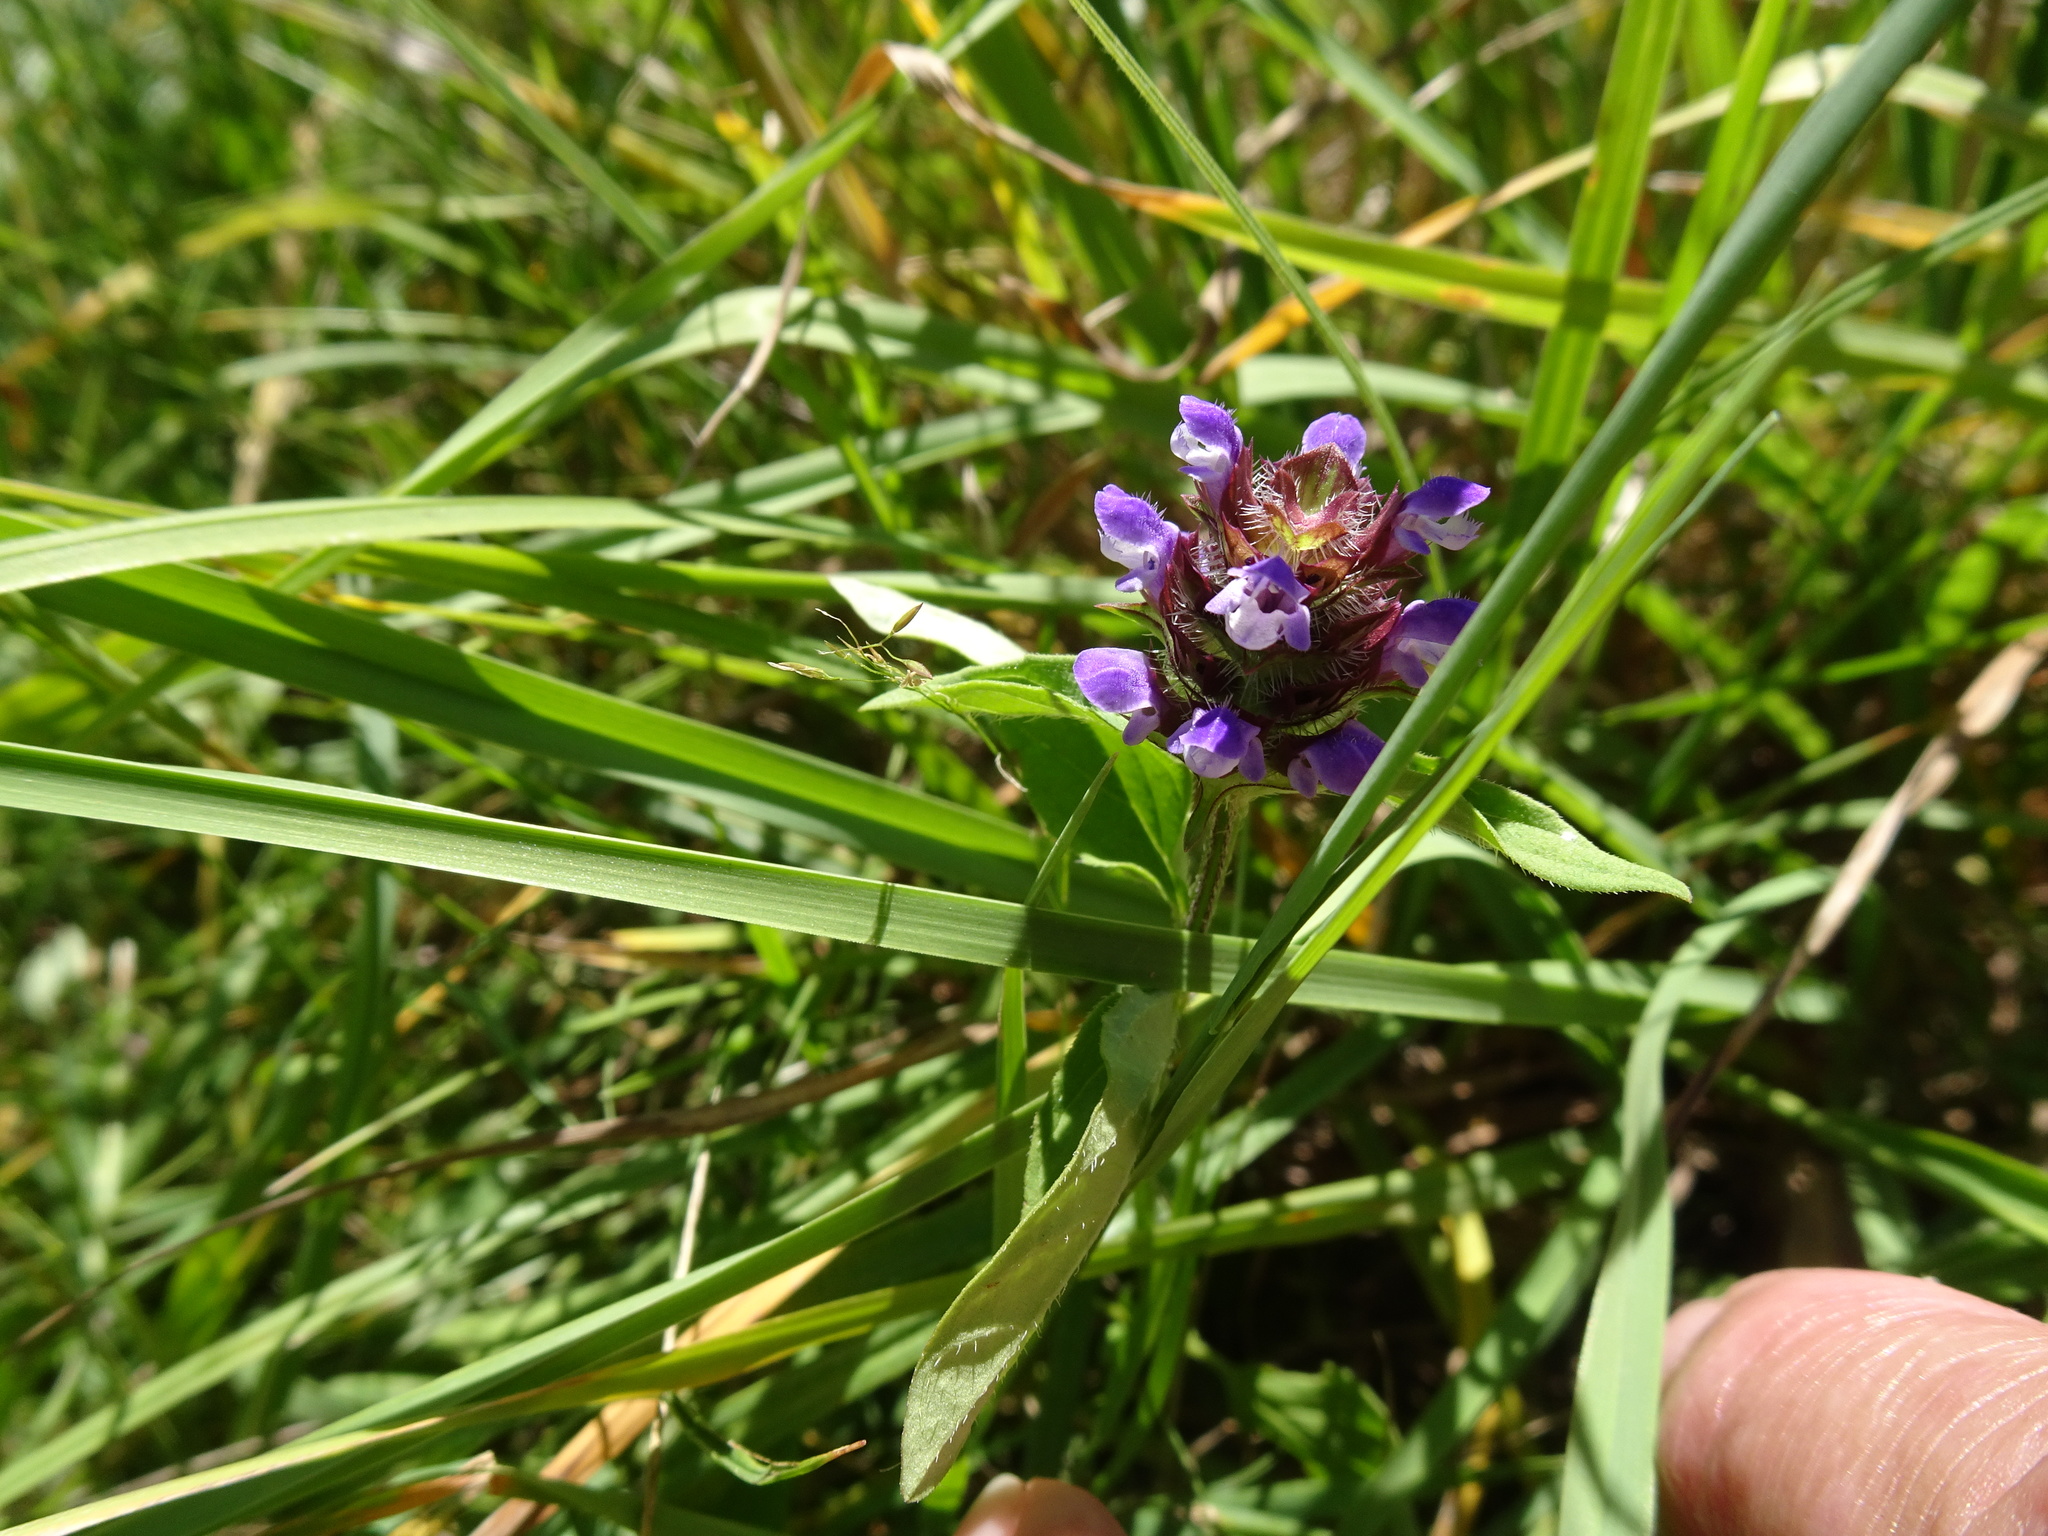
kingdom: Plantae
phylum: Tracheophyta
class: Magnoliopsida
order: Lamiales
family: Lamiaceae
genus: Prunella
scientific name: Prunella vulgaris
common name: Heal-all
